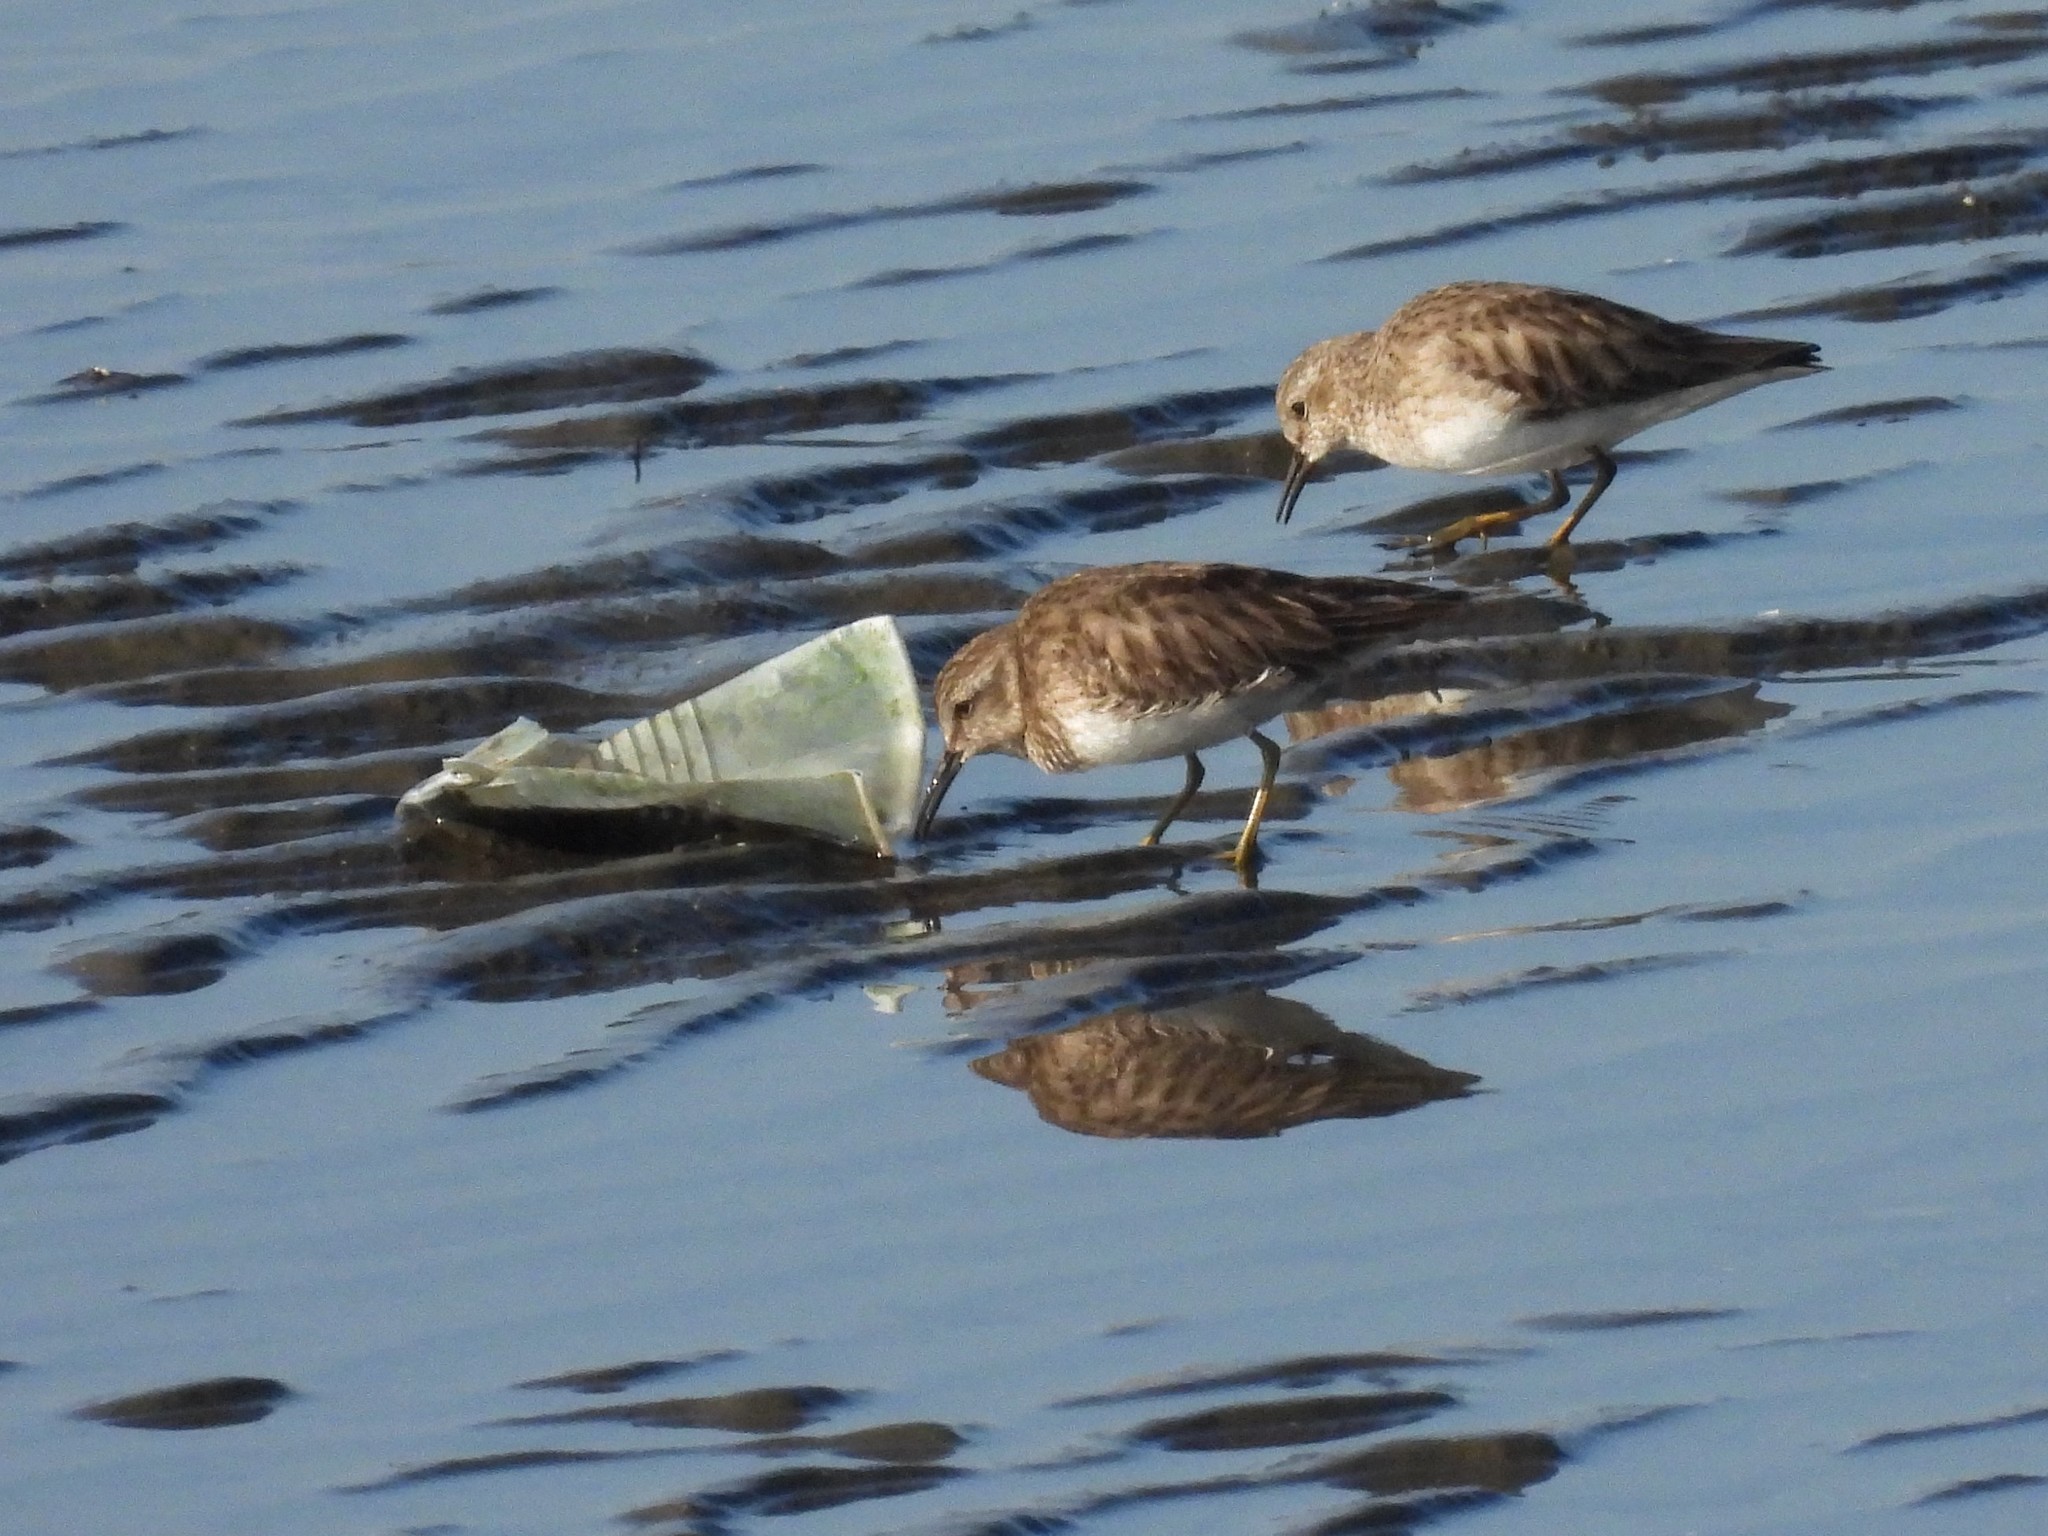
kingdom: Animalia
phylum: Chordata
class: Aves
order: Charadriiformes
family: Scolopacidae
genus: Calidris
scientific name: Calidris minutilla
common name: Least sandpiper
